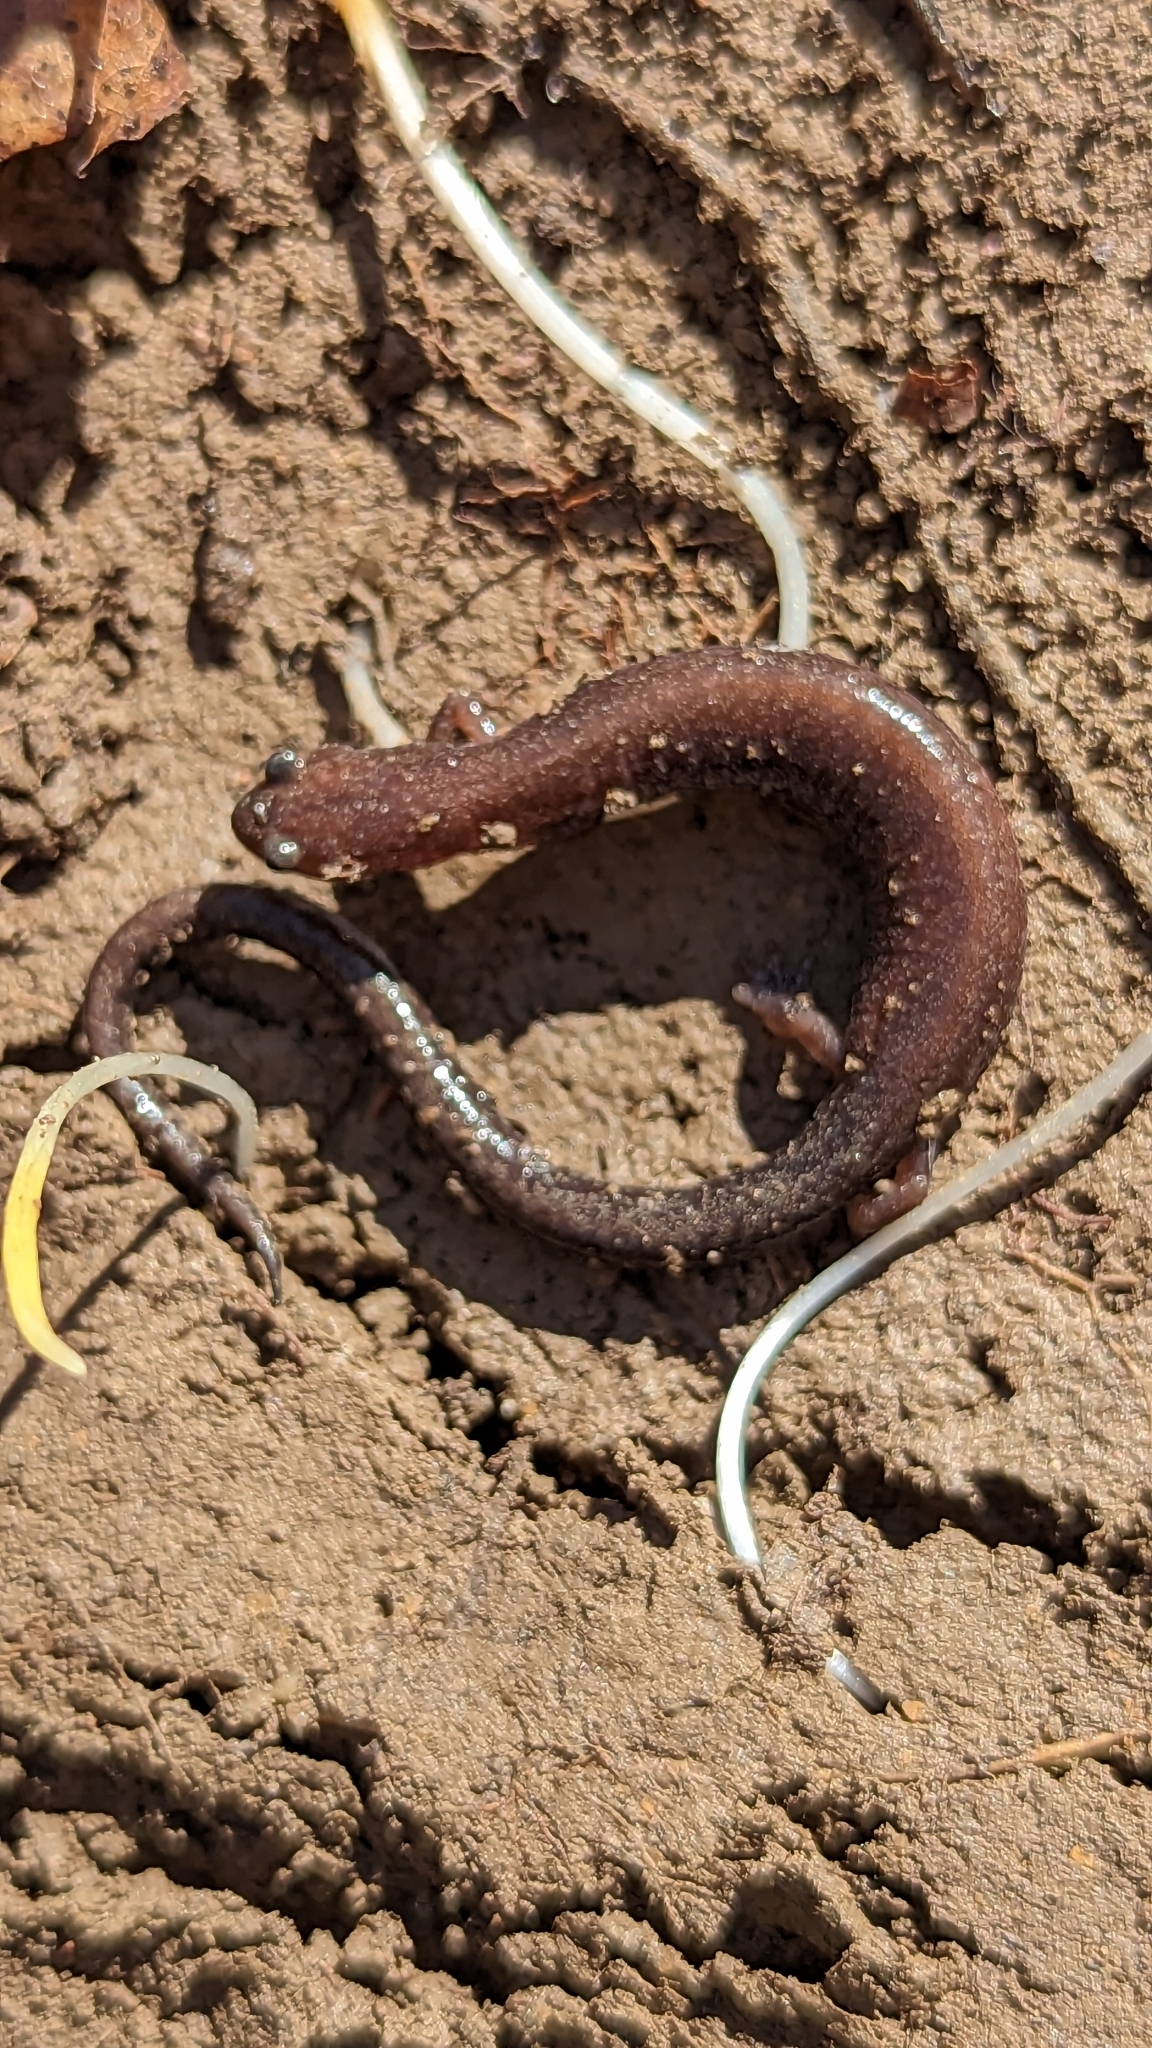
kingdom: Animalia
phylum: Chordata
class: Amphibia
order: Caudata
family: Plethodontidae
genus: Plethodon
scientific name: Plethodon cinereus
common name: Redback salamander
